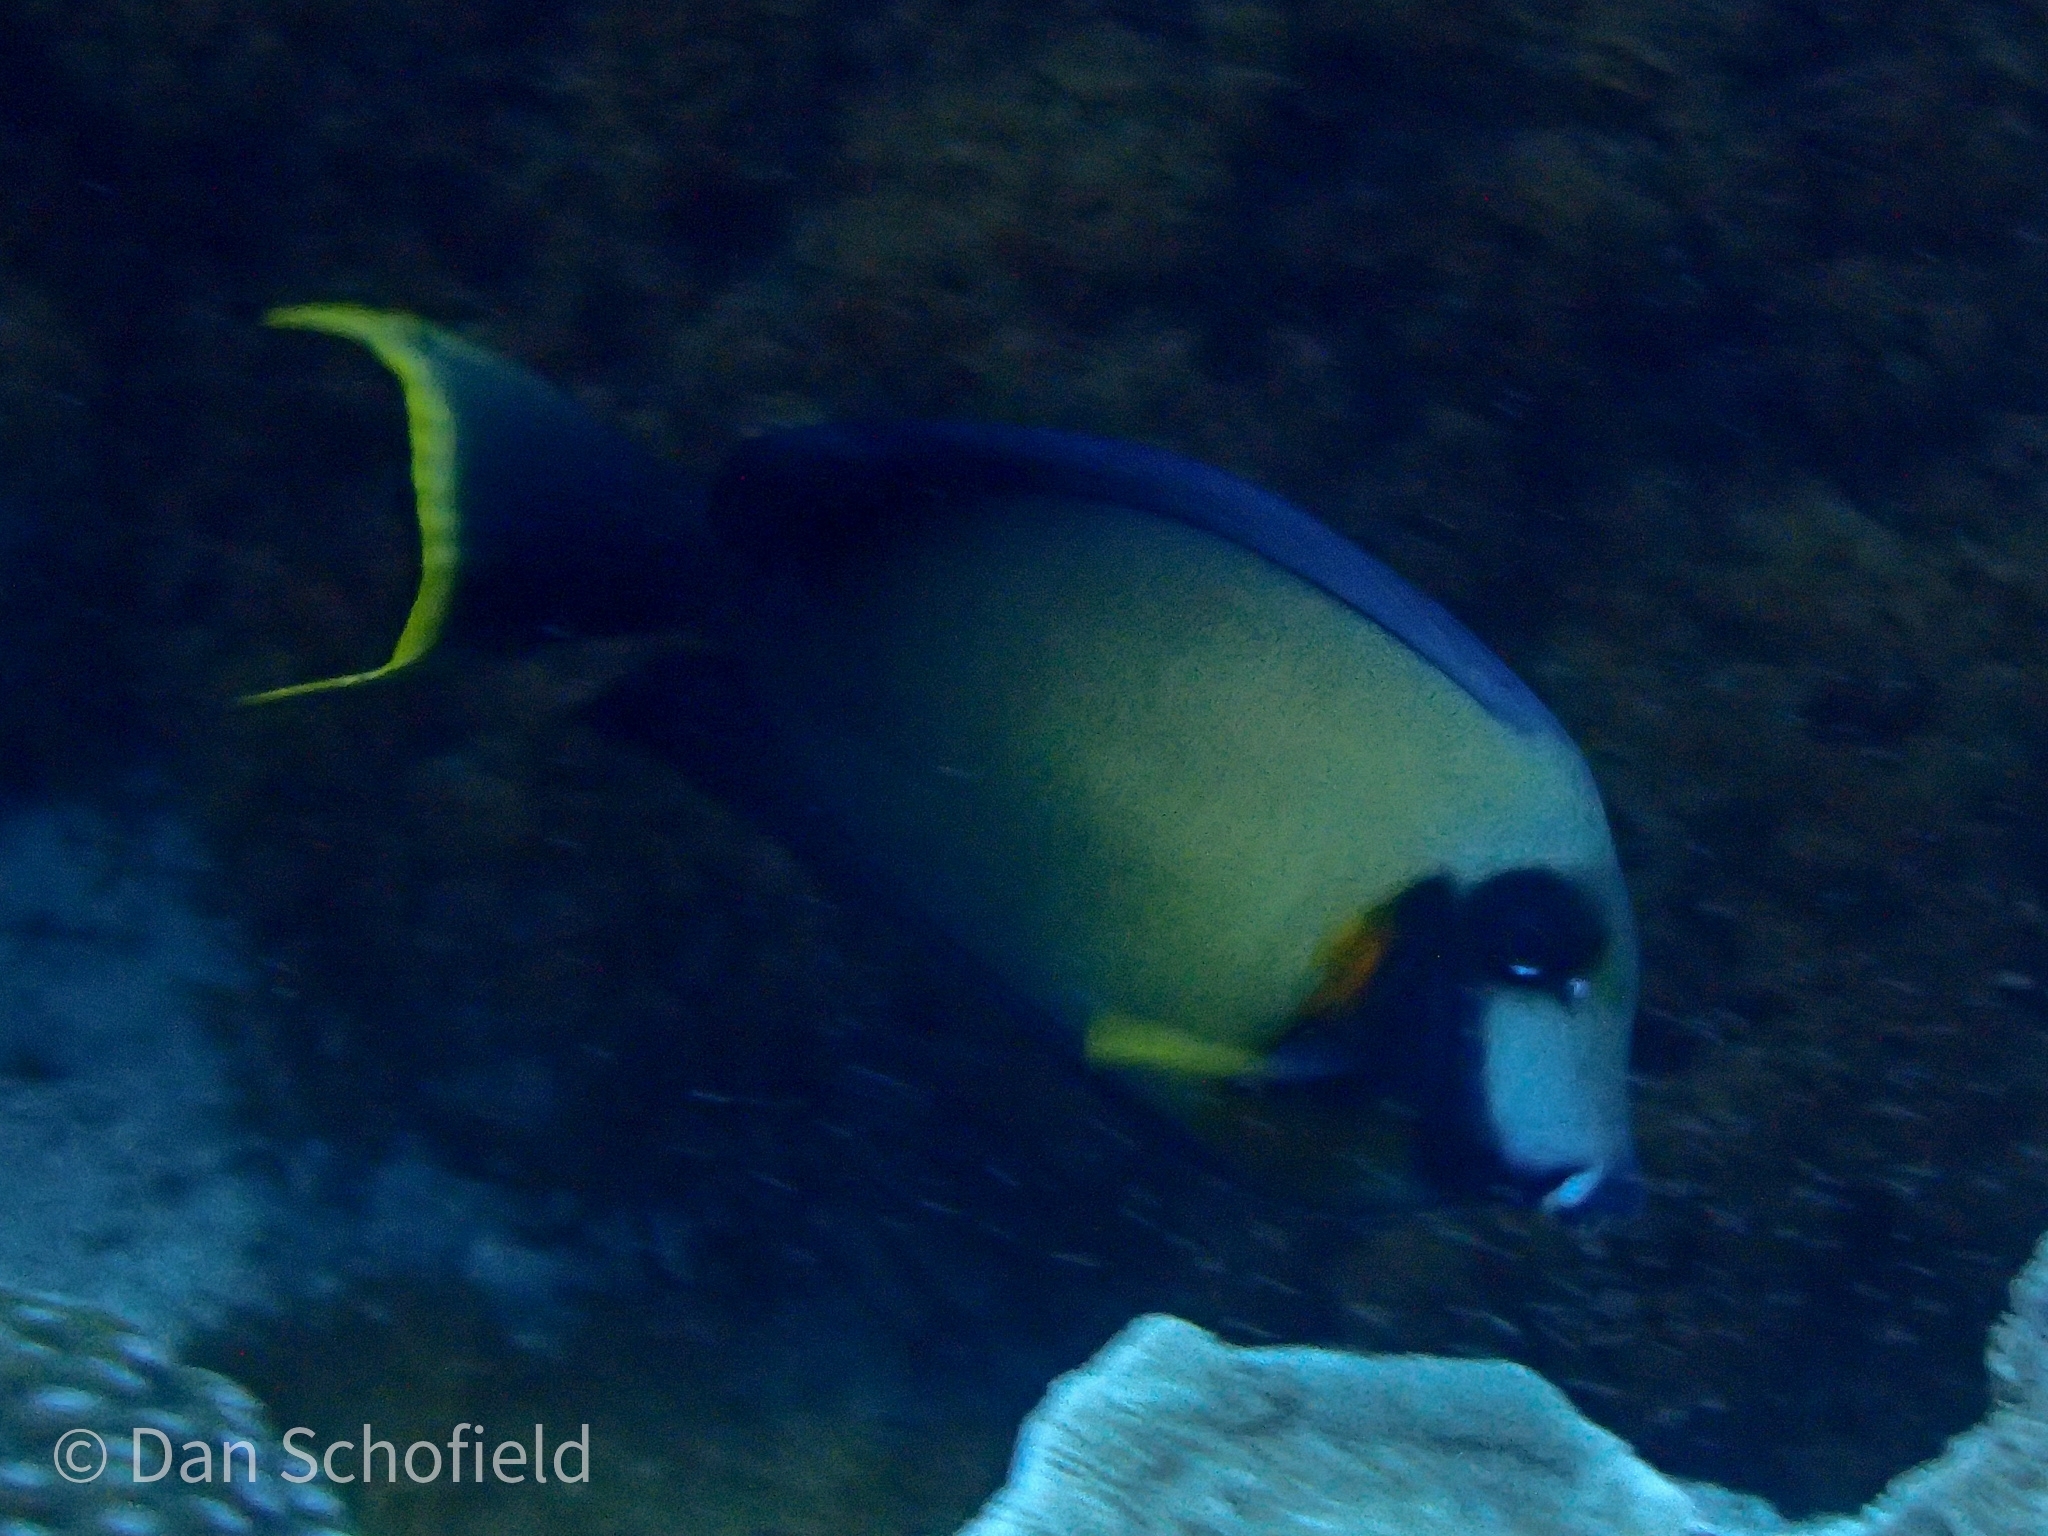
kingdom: Animalia
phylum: Chordata
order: Perciformes
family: Acanthuridae
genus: Acanthurus
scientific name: Acanthurus pyroferus
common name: Chocolate surgeonfish
